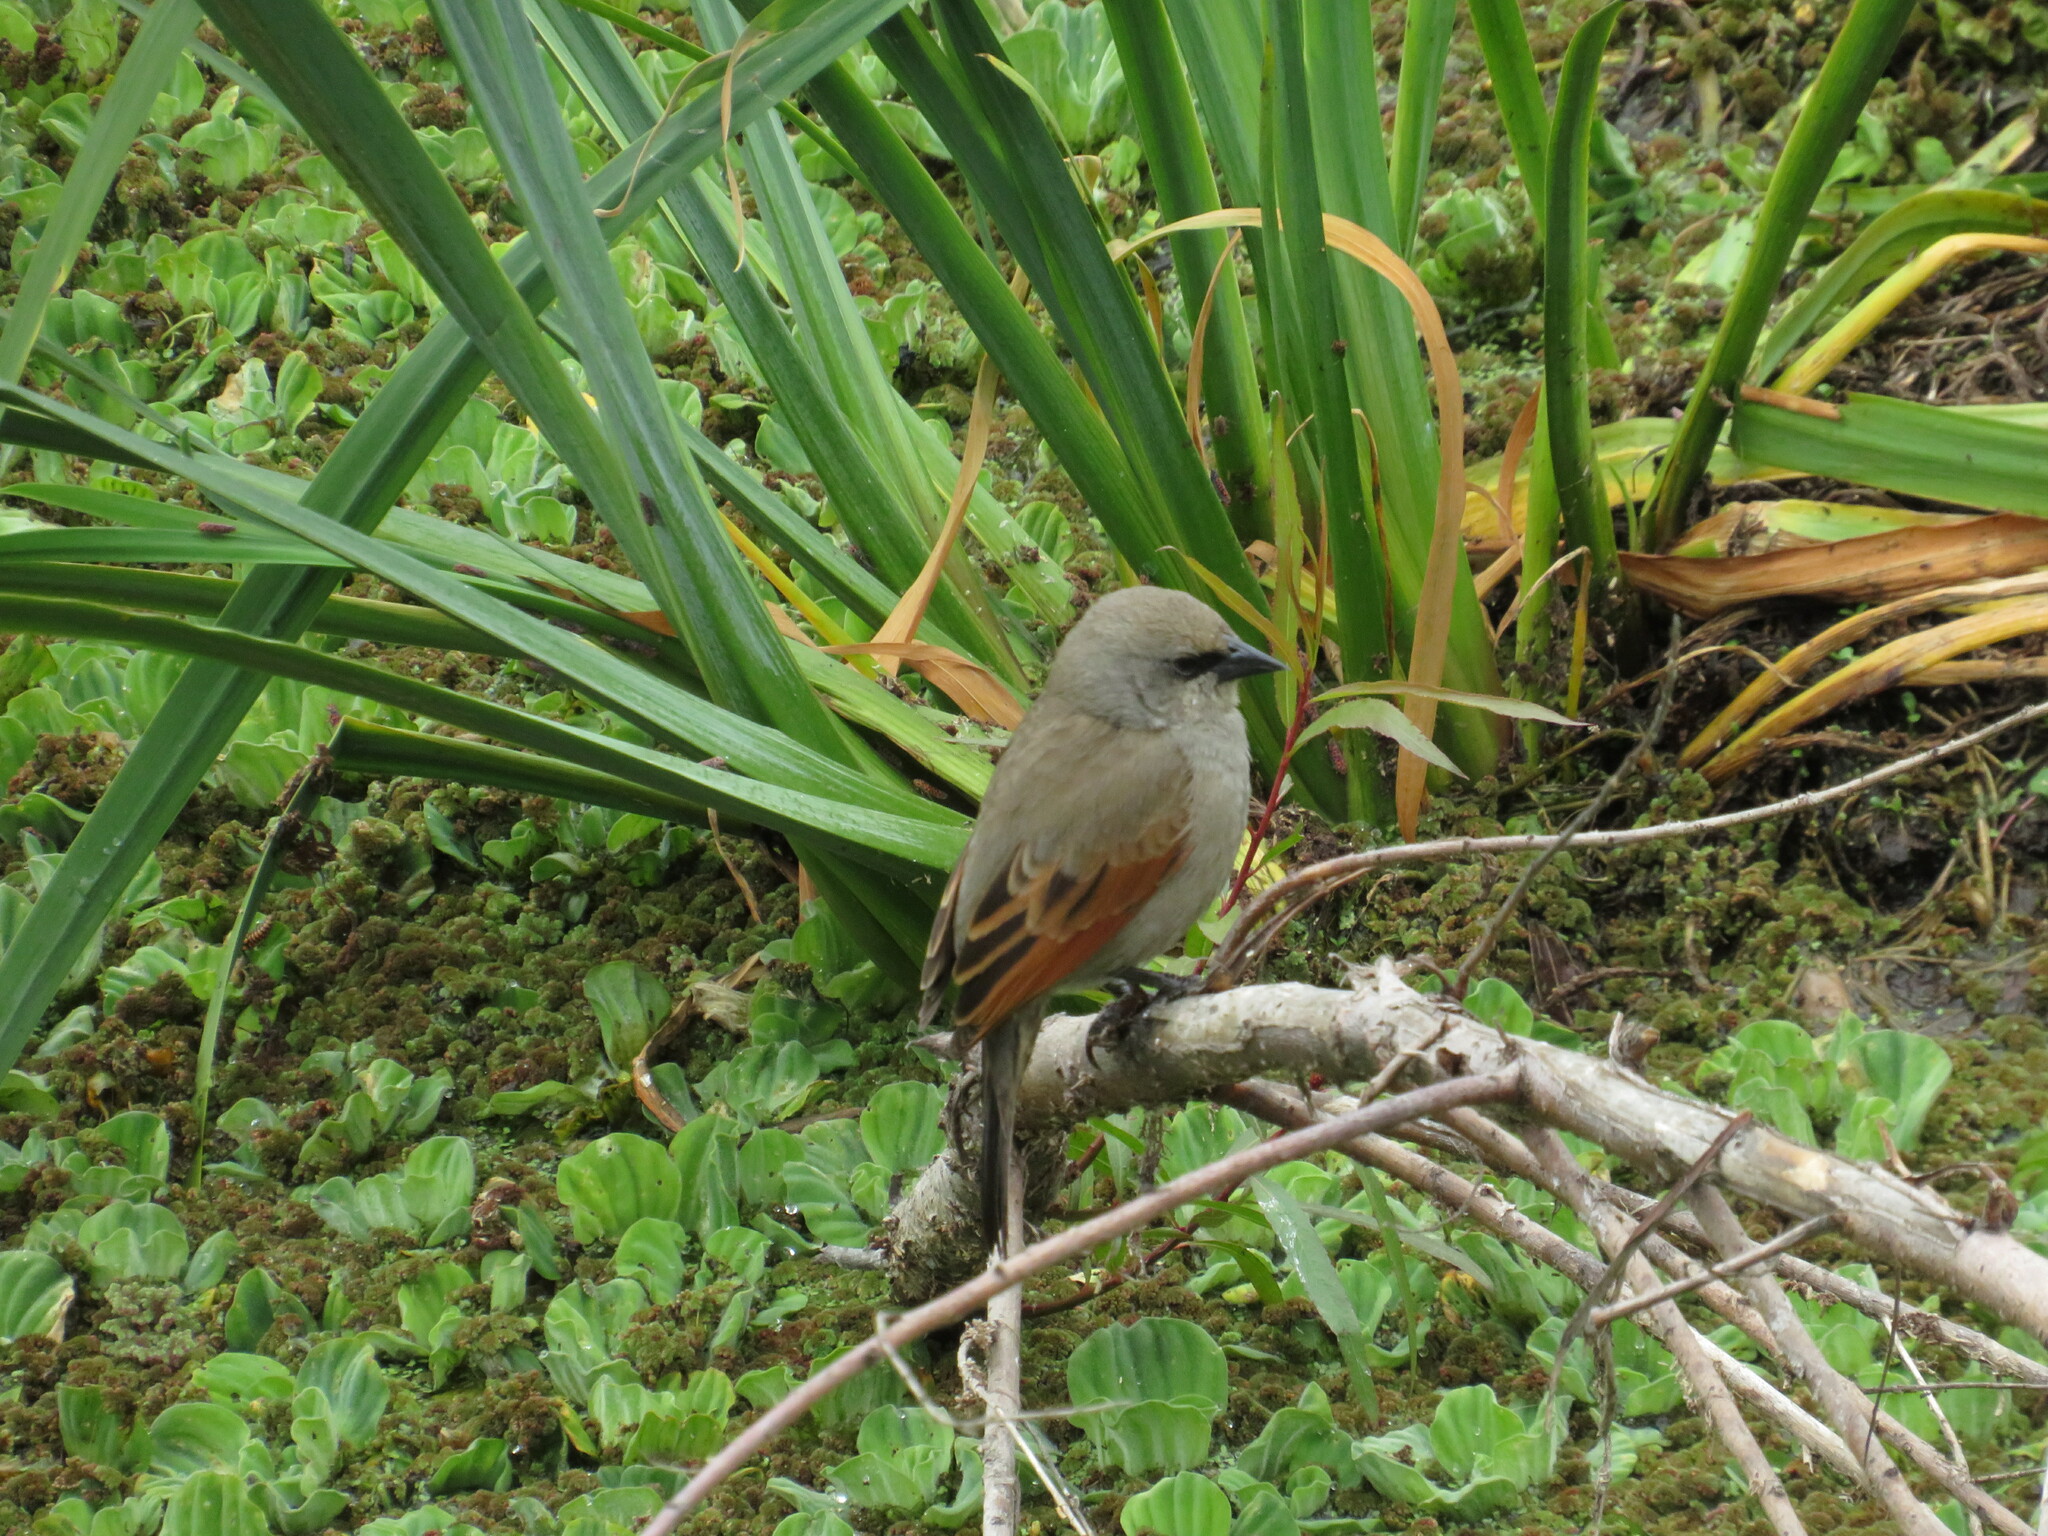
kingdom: Animalia
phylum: Chordata
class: Aves
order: Passeriformes
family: Icteridae
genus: Agelaioides
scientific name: Agelaioides badius
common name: Baywing
